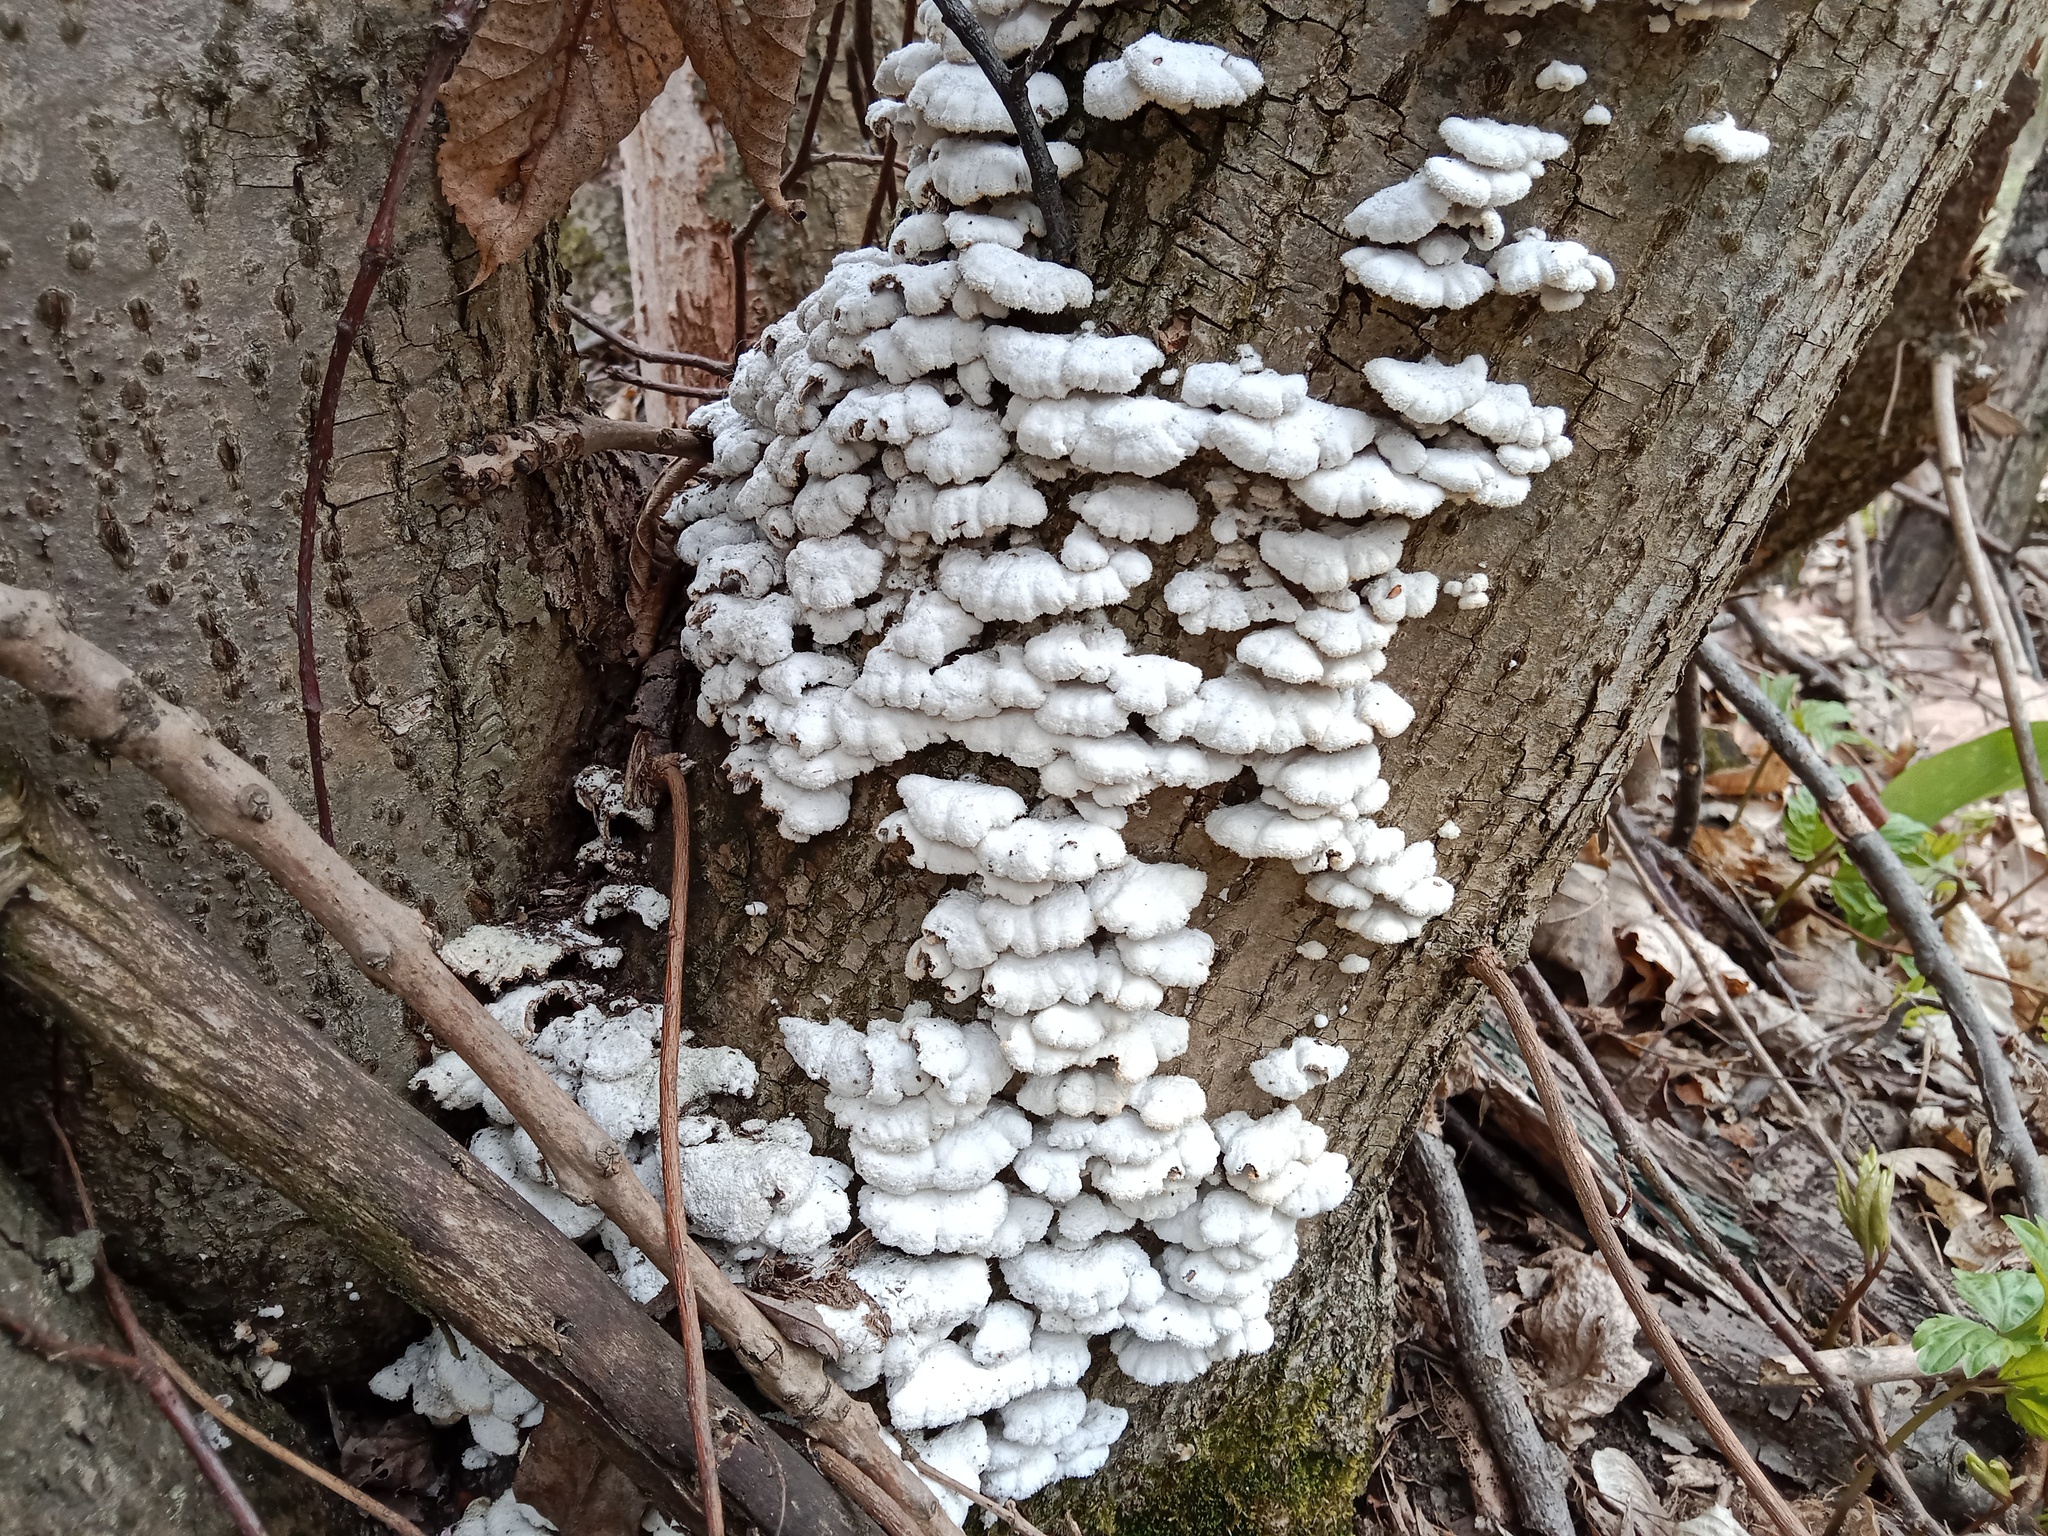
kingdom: Fungi
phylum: Basidiomycota
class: Agaricomycetes
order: Agaricales
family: Schizophyllaceae
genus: Schizophyllum
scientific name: Schizophyllum commune
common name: Common porecrust
